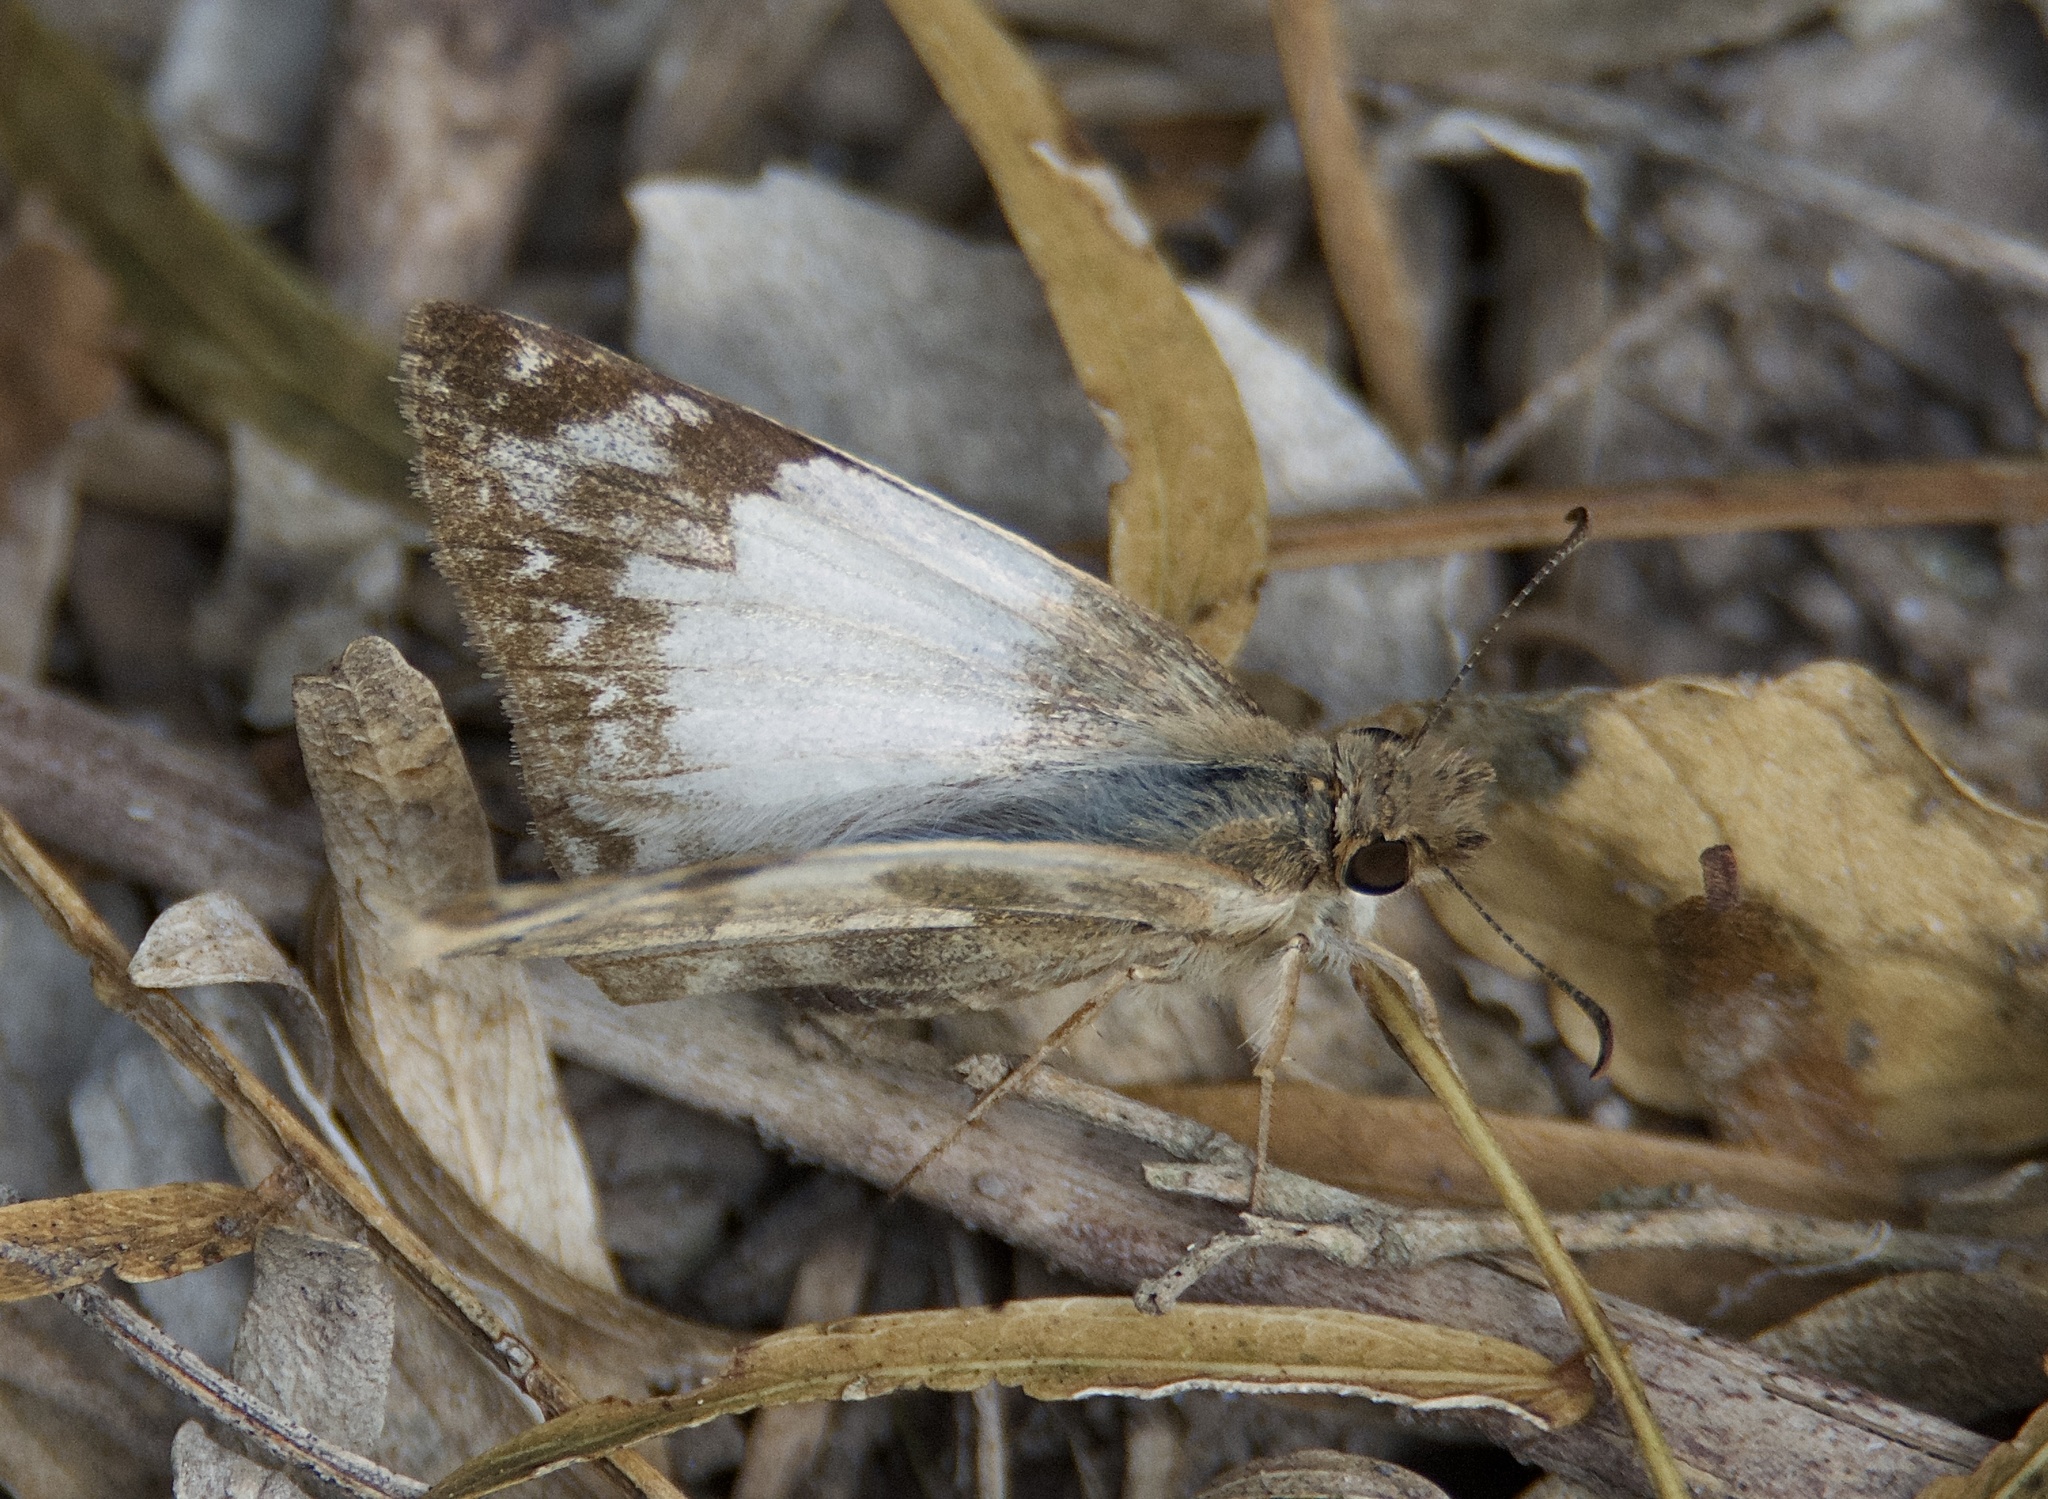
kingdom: Animalia
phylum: Arthropoda
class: Insecta
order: Lepidoptera
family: Hesperiidae
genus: Heliopetes
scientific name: Heliopetes laviana
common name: Laviana white-skipper
